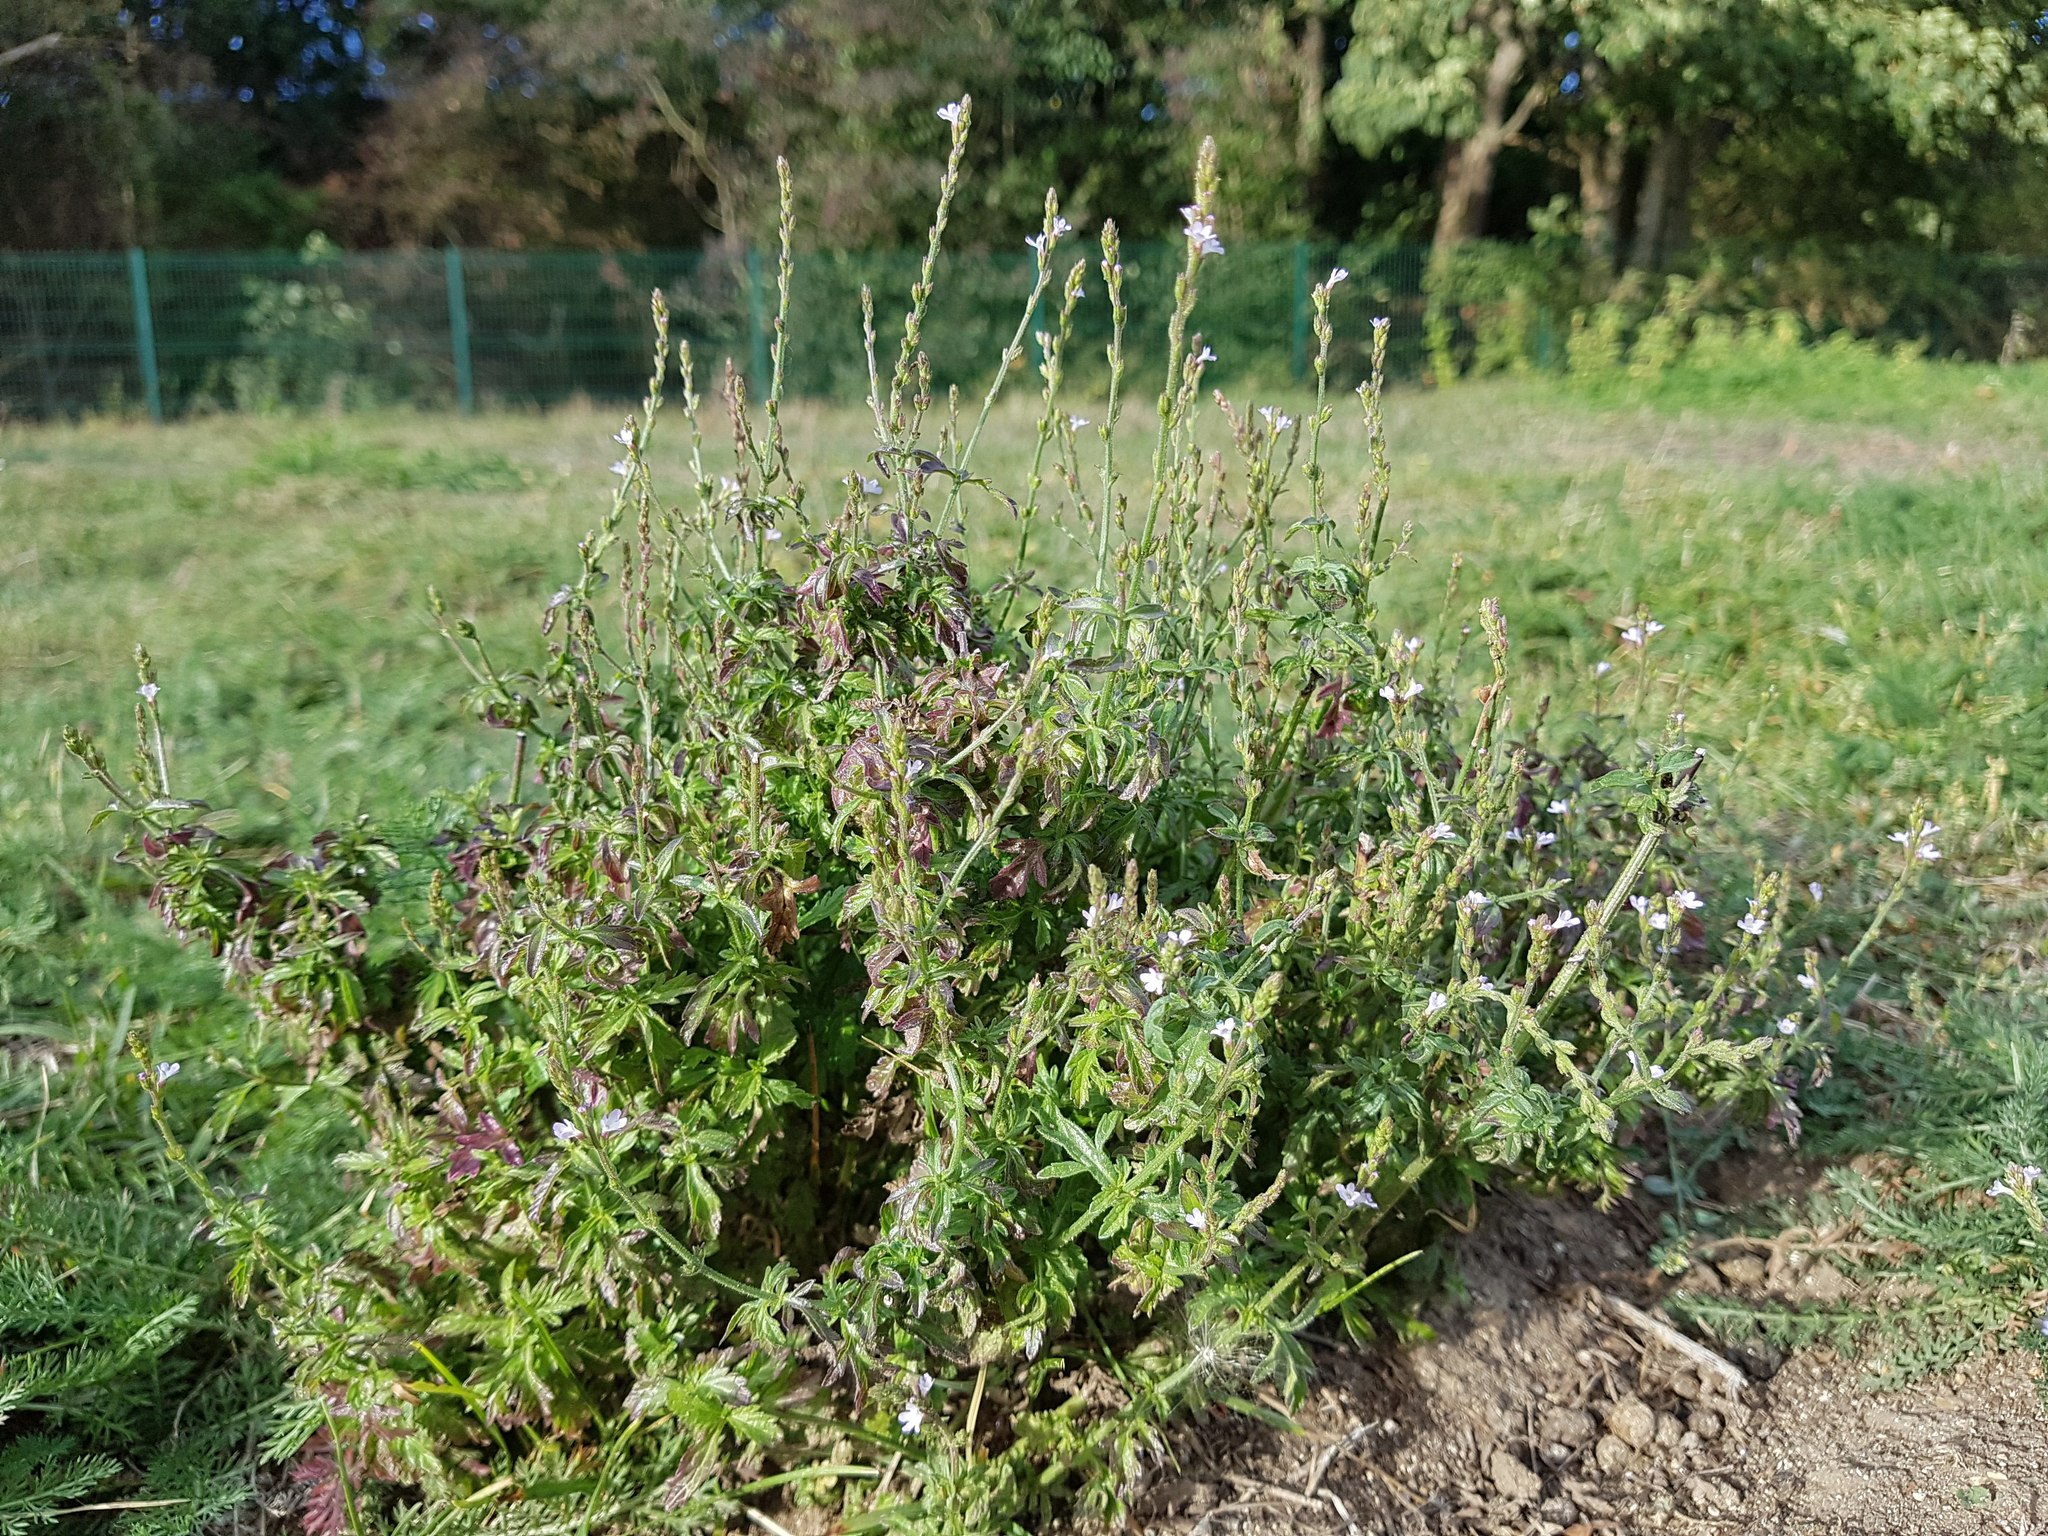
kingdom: Plantae
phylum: Tracheophyta
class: Magnoliopsida
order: Lamiales
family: Verbenaceae
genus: Verbena
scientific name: Verbena officinalis
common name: Vervain
